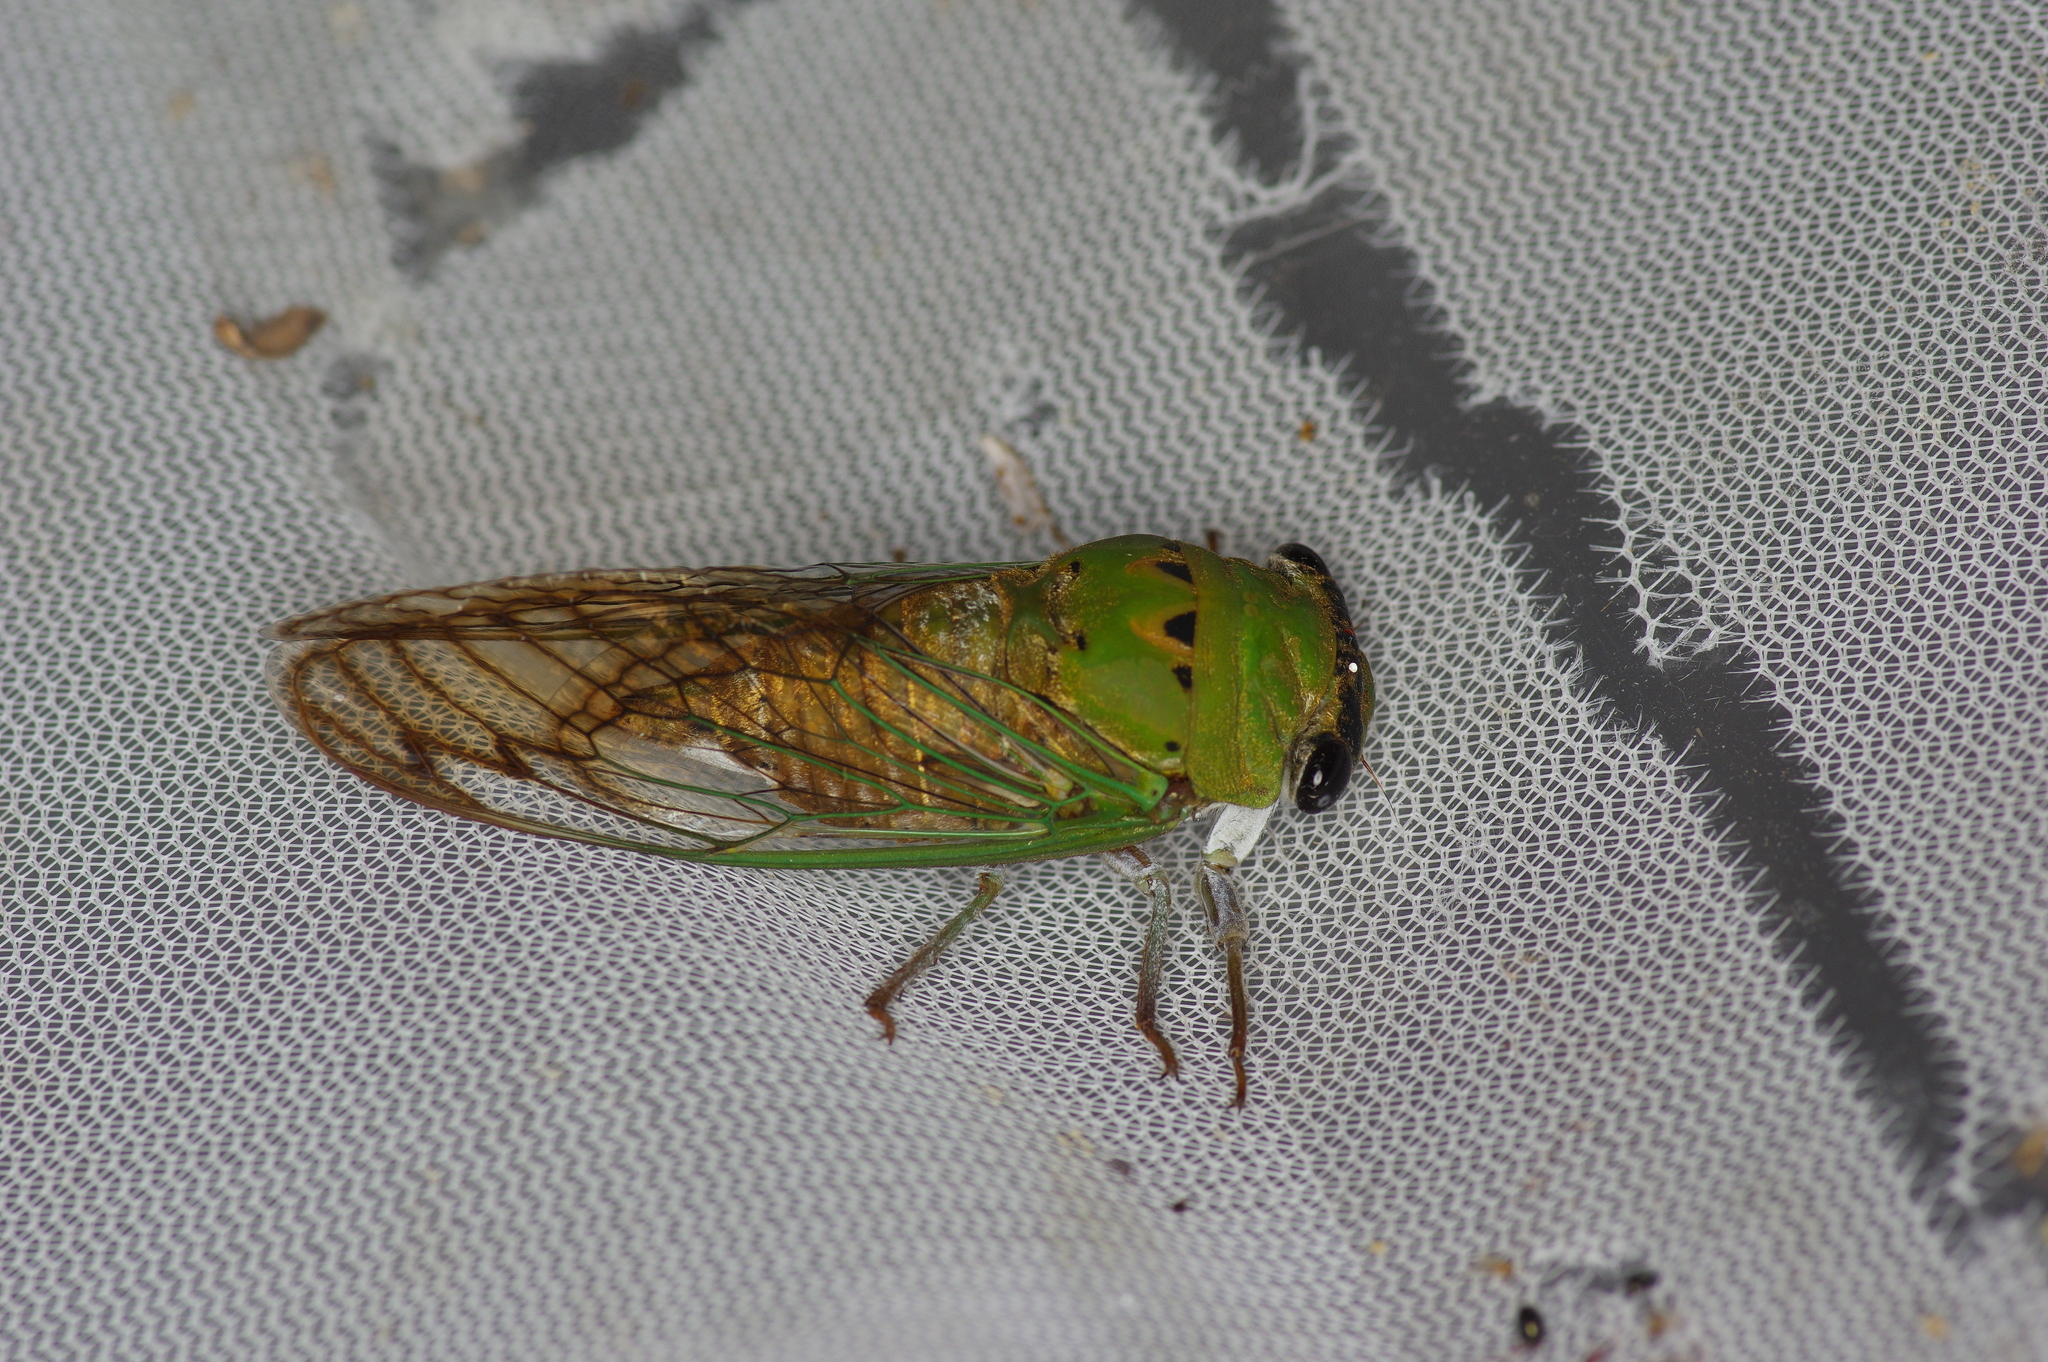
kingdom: Animalia
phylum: Arthropoda
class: Insecta
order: Hemiptera
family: Cicadidae
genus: Neotibicen
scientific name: Neotibicen superbus
